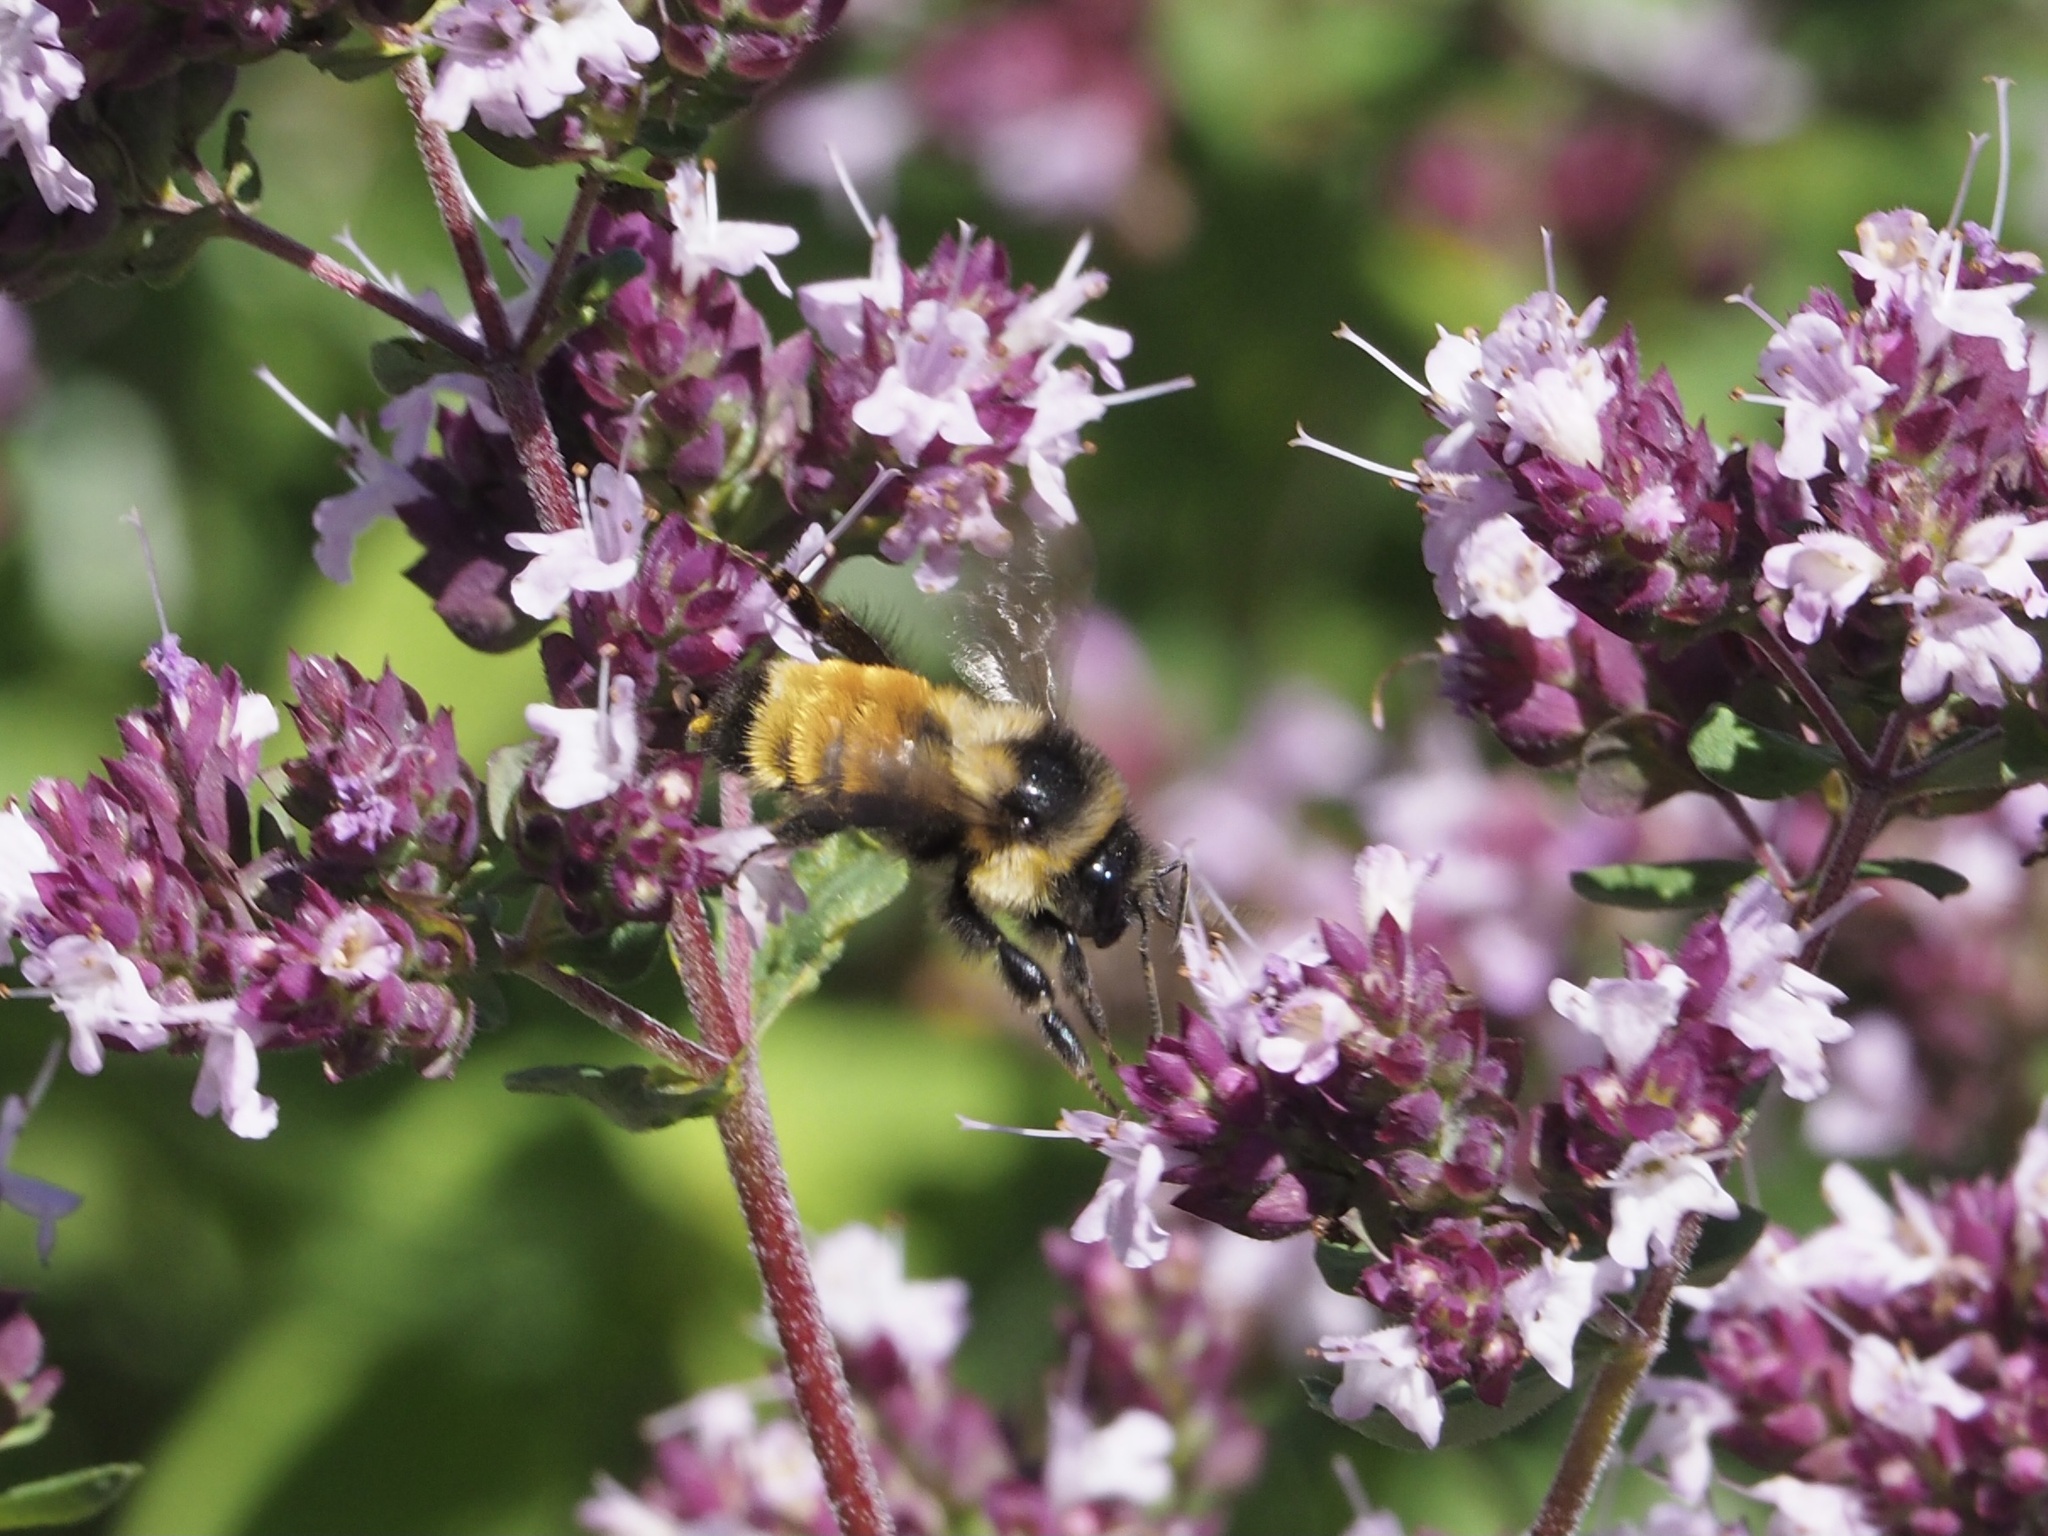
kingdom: Animalia
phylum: Arthropoda
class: Insecta
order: Hymenoptera
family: Apidae
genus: Bombus
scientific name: Bombus ternarius
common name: Tri-colored bumble bee
